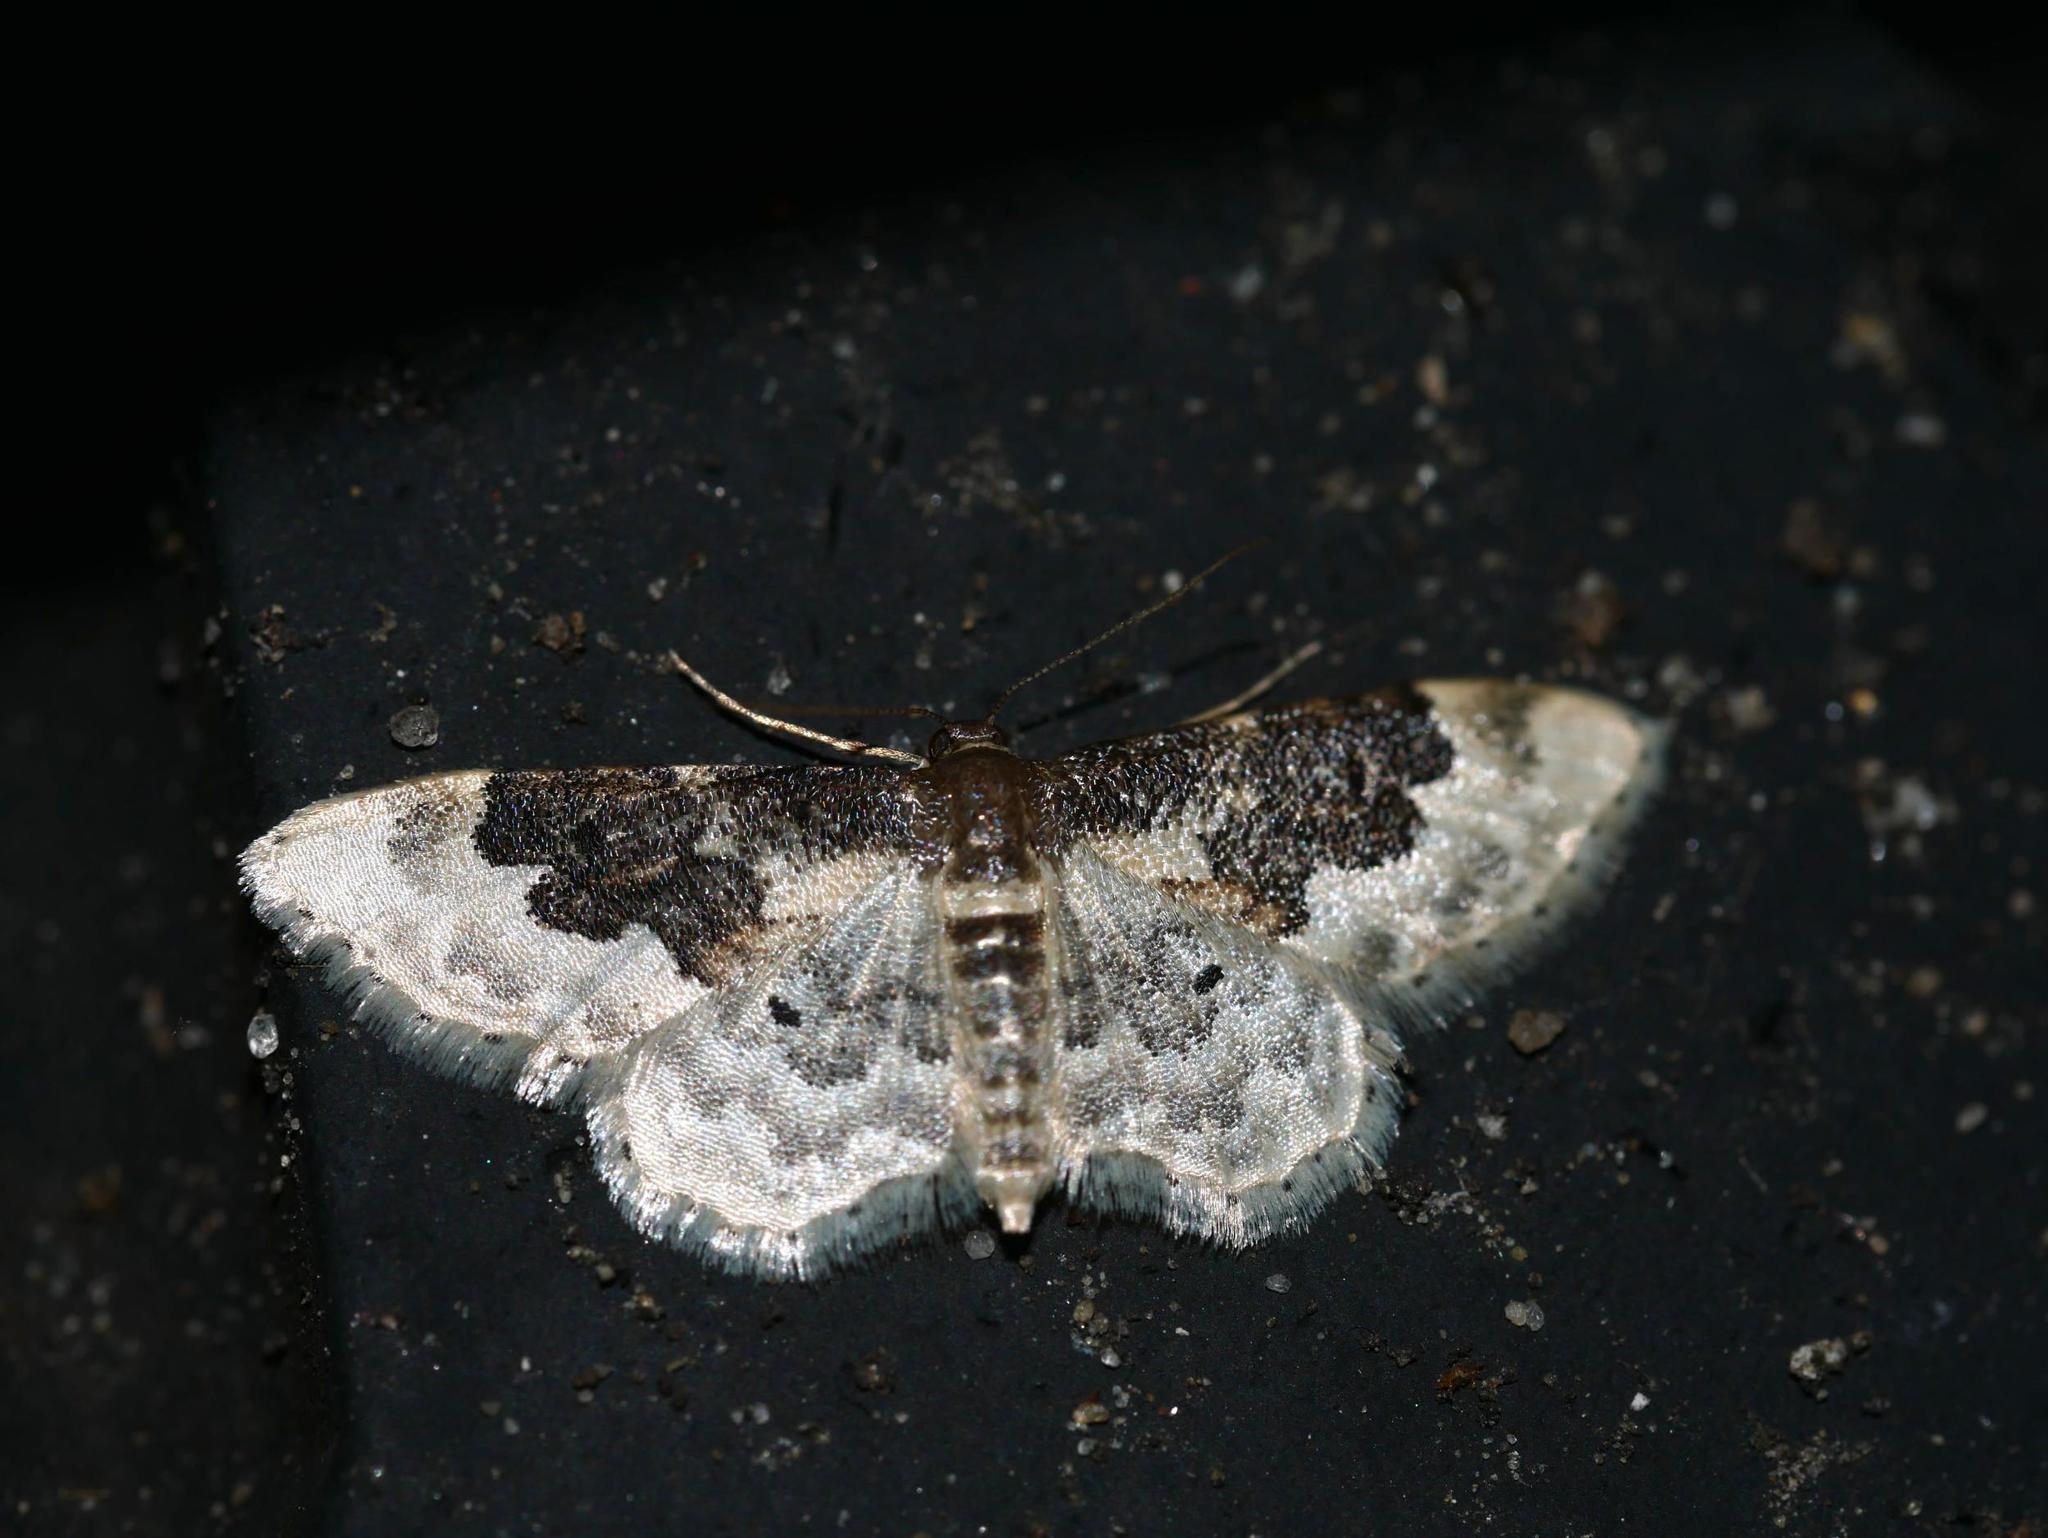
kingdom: Animalia
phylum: Arthropoda
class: Insecta
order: Lepidoptera
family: Geometridae
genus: Idaea
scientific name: Idaea rusticata
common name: Least carpet
